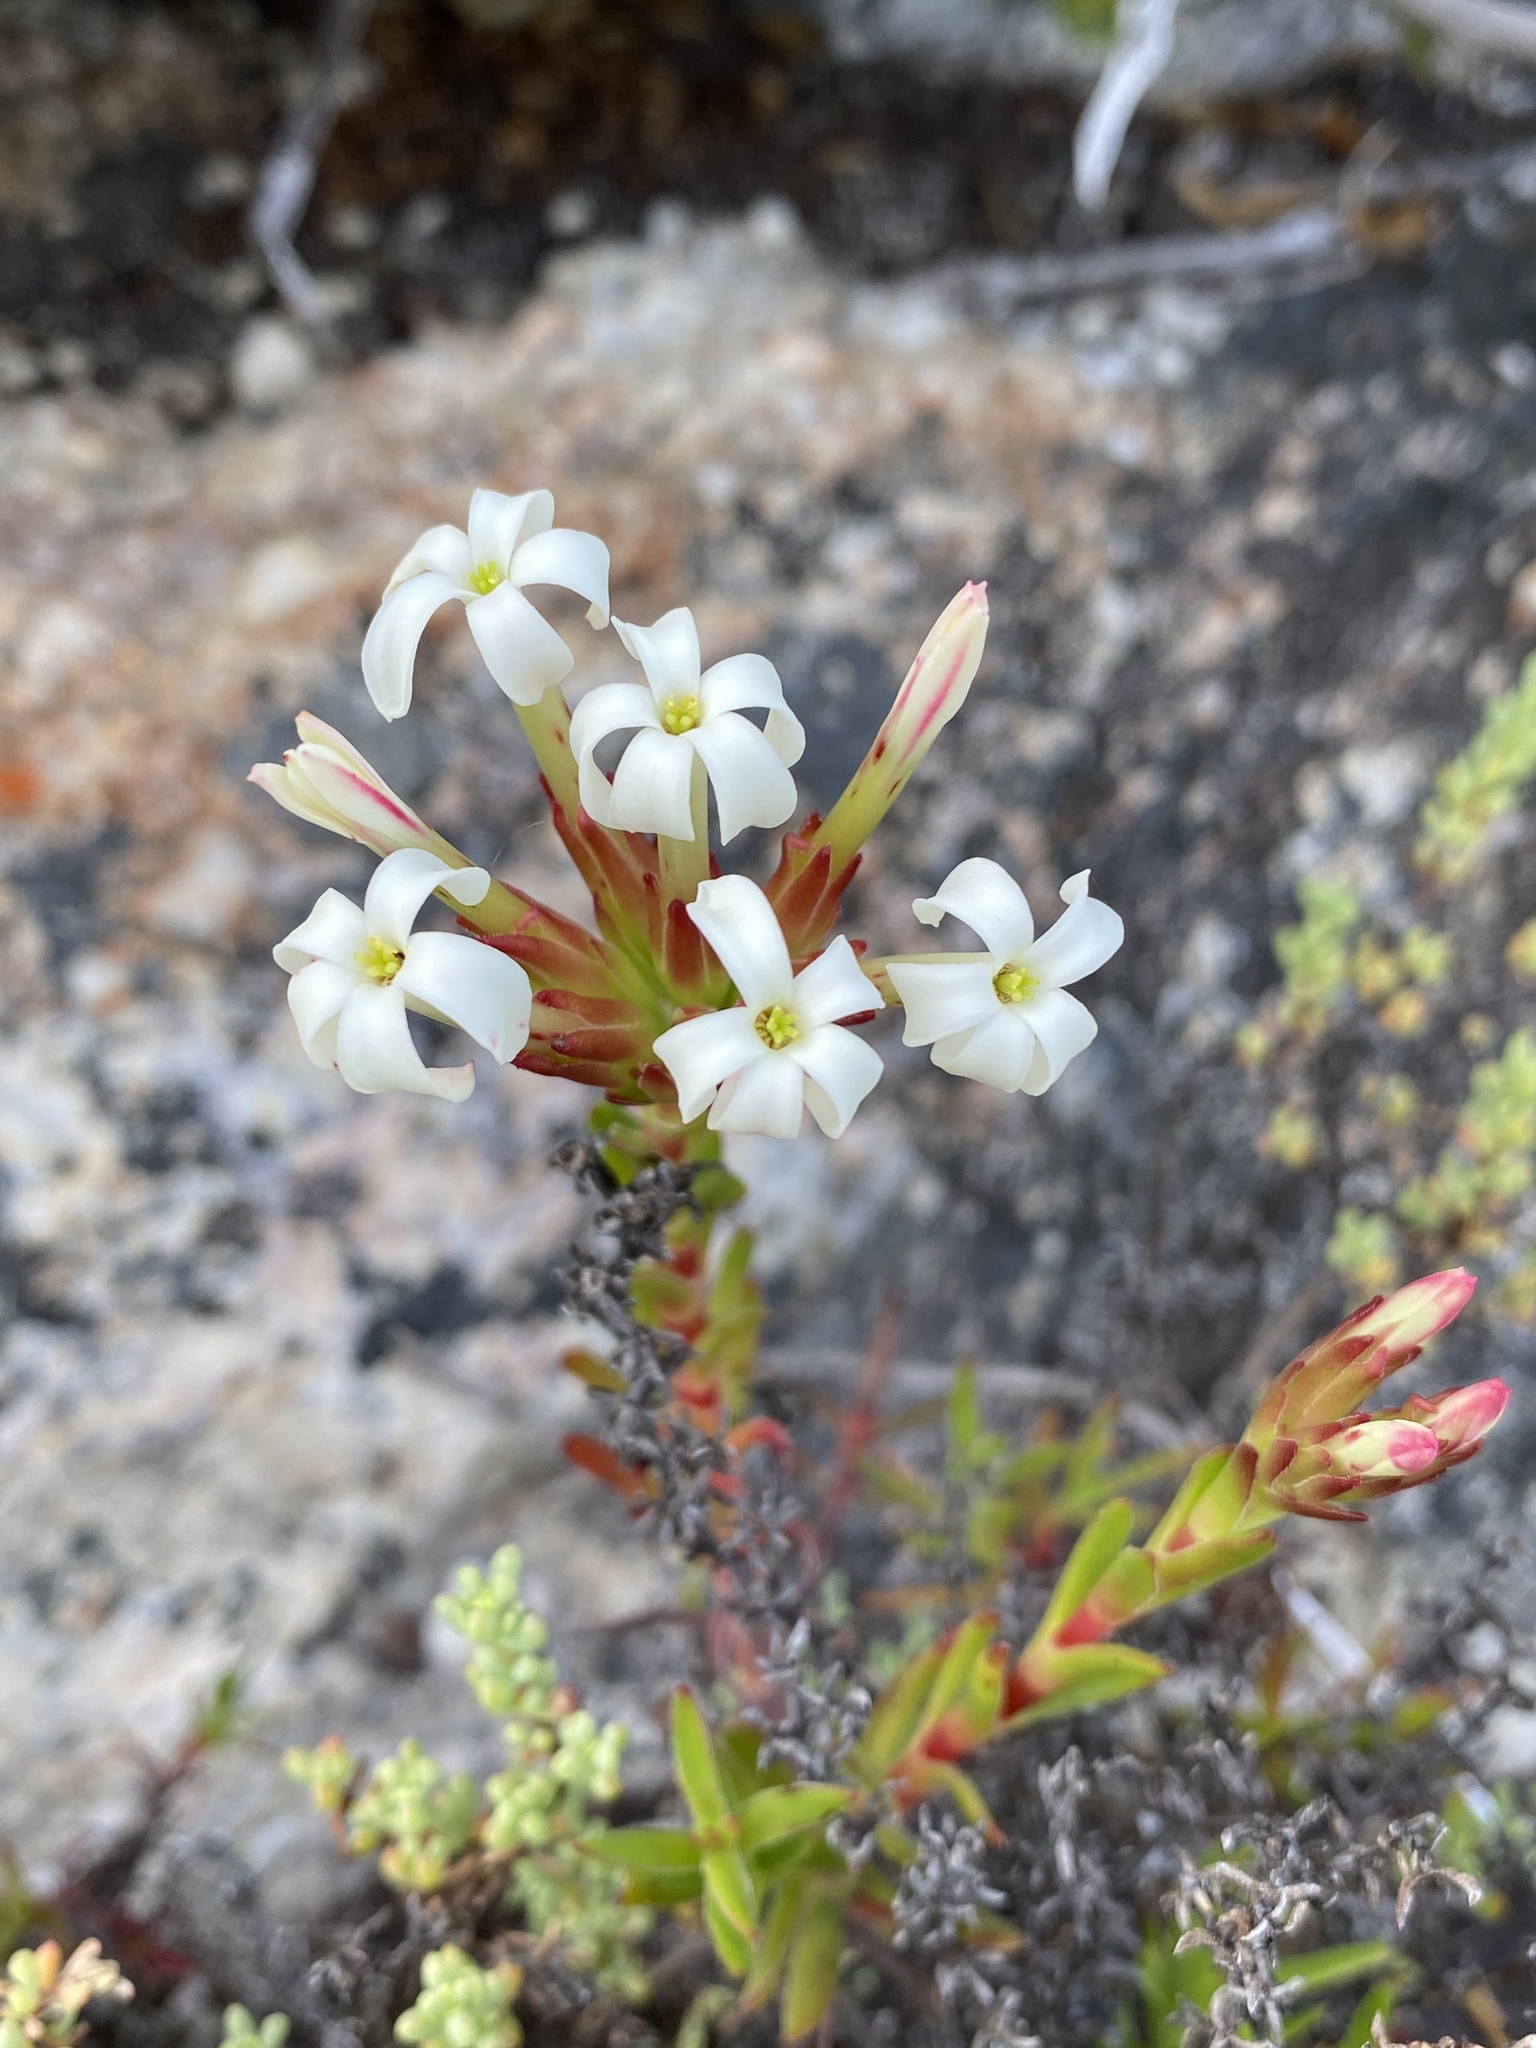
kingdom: Plantae
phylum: Tracheophyta
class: Magnoliopsida
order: Saxifragales
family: Crassulaceae
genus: Crassula
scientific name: Crassula fascicularis
